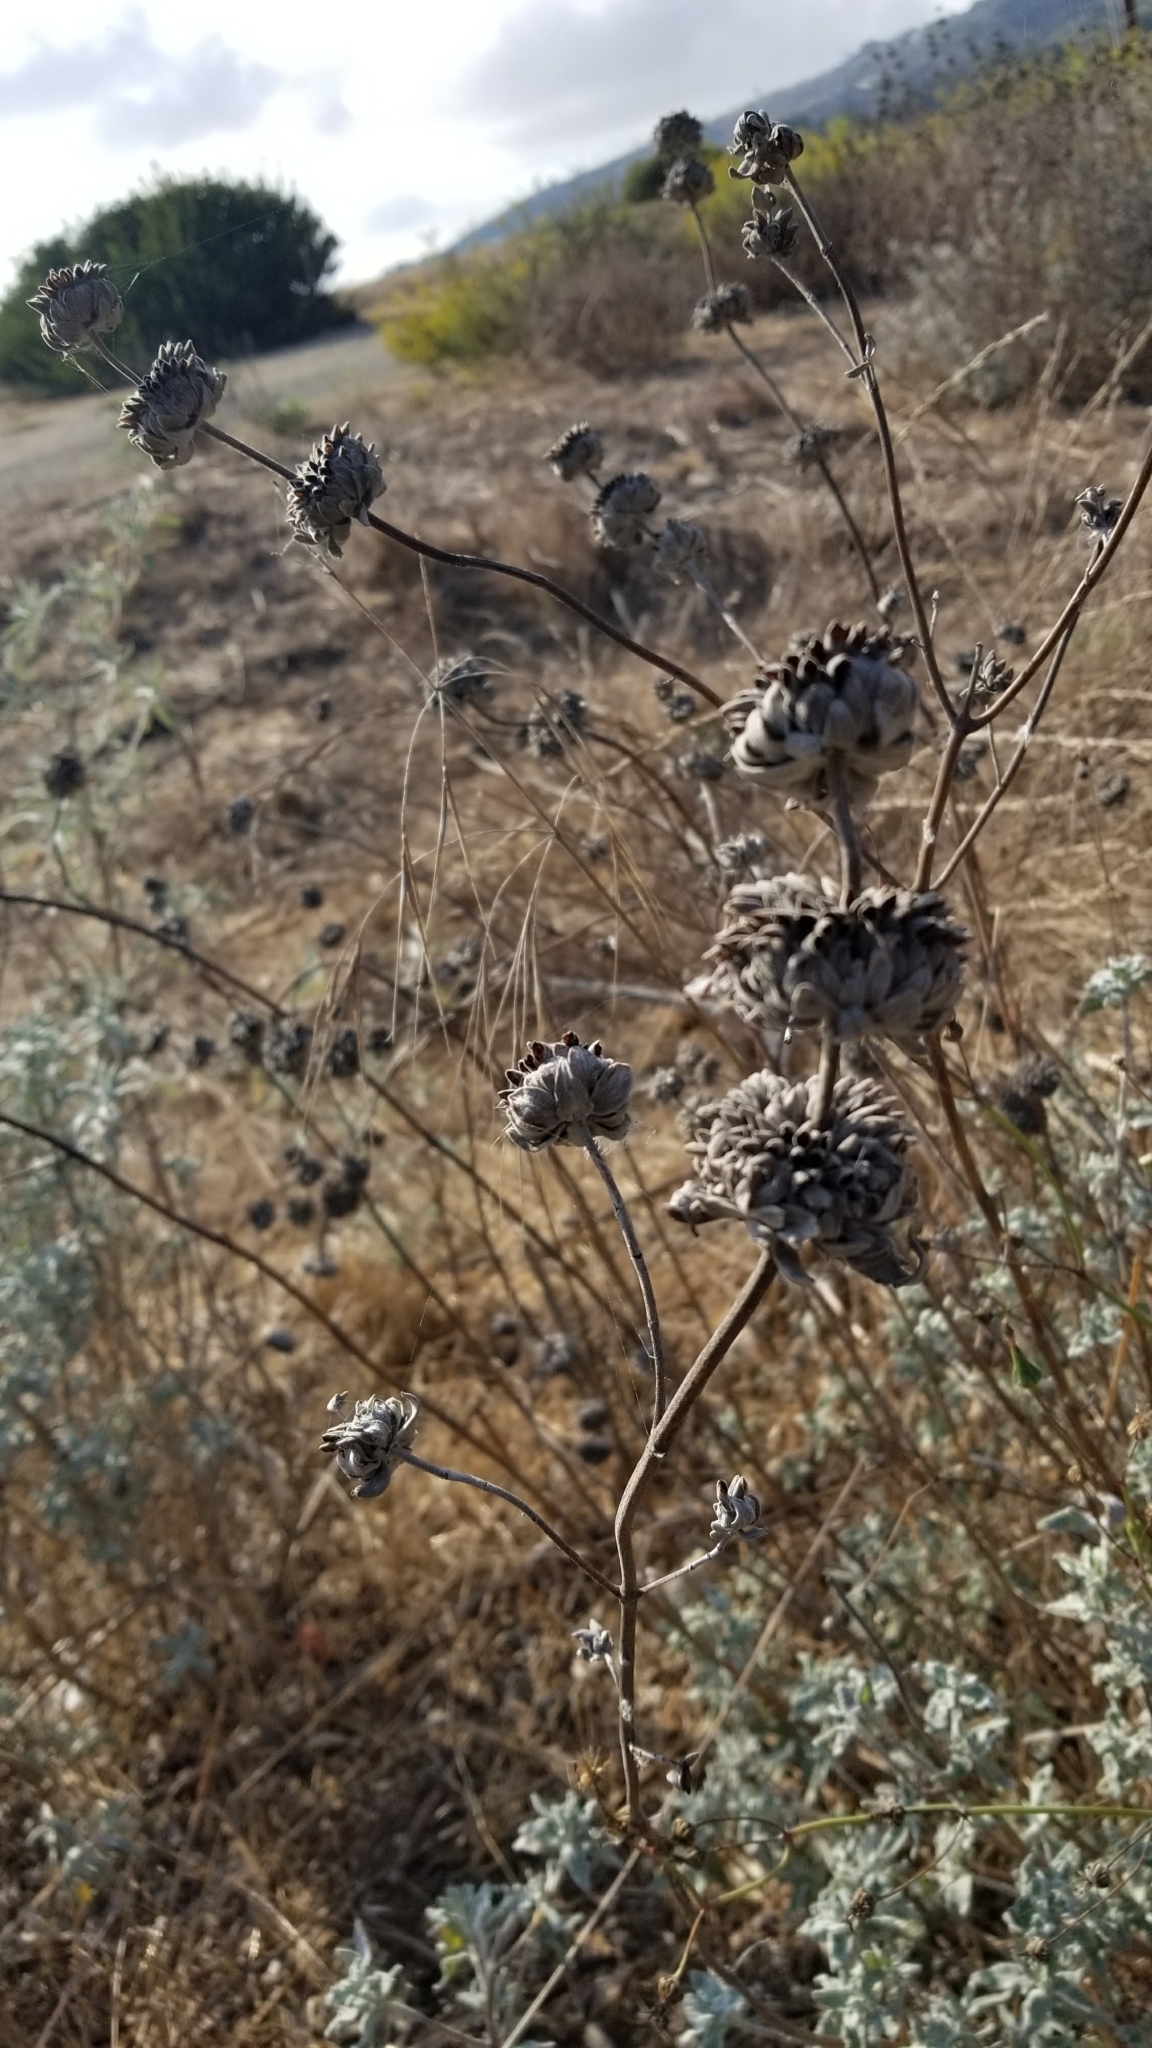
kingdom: Plantae
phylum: Tracheophyta
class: Magnoliopsida
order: Lamiales
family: Lamiaceae
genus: Salvia
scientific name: Salvia leucophylla
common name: Purple sage
